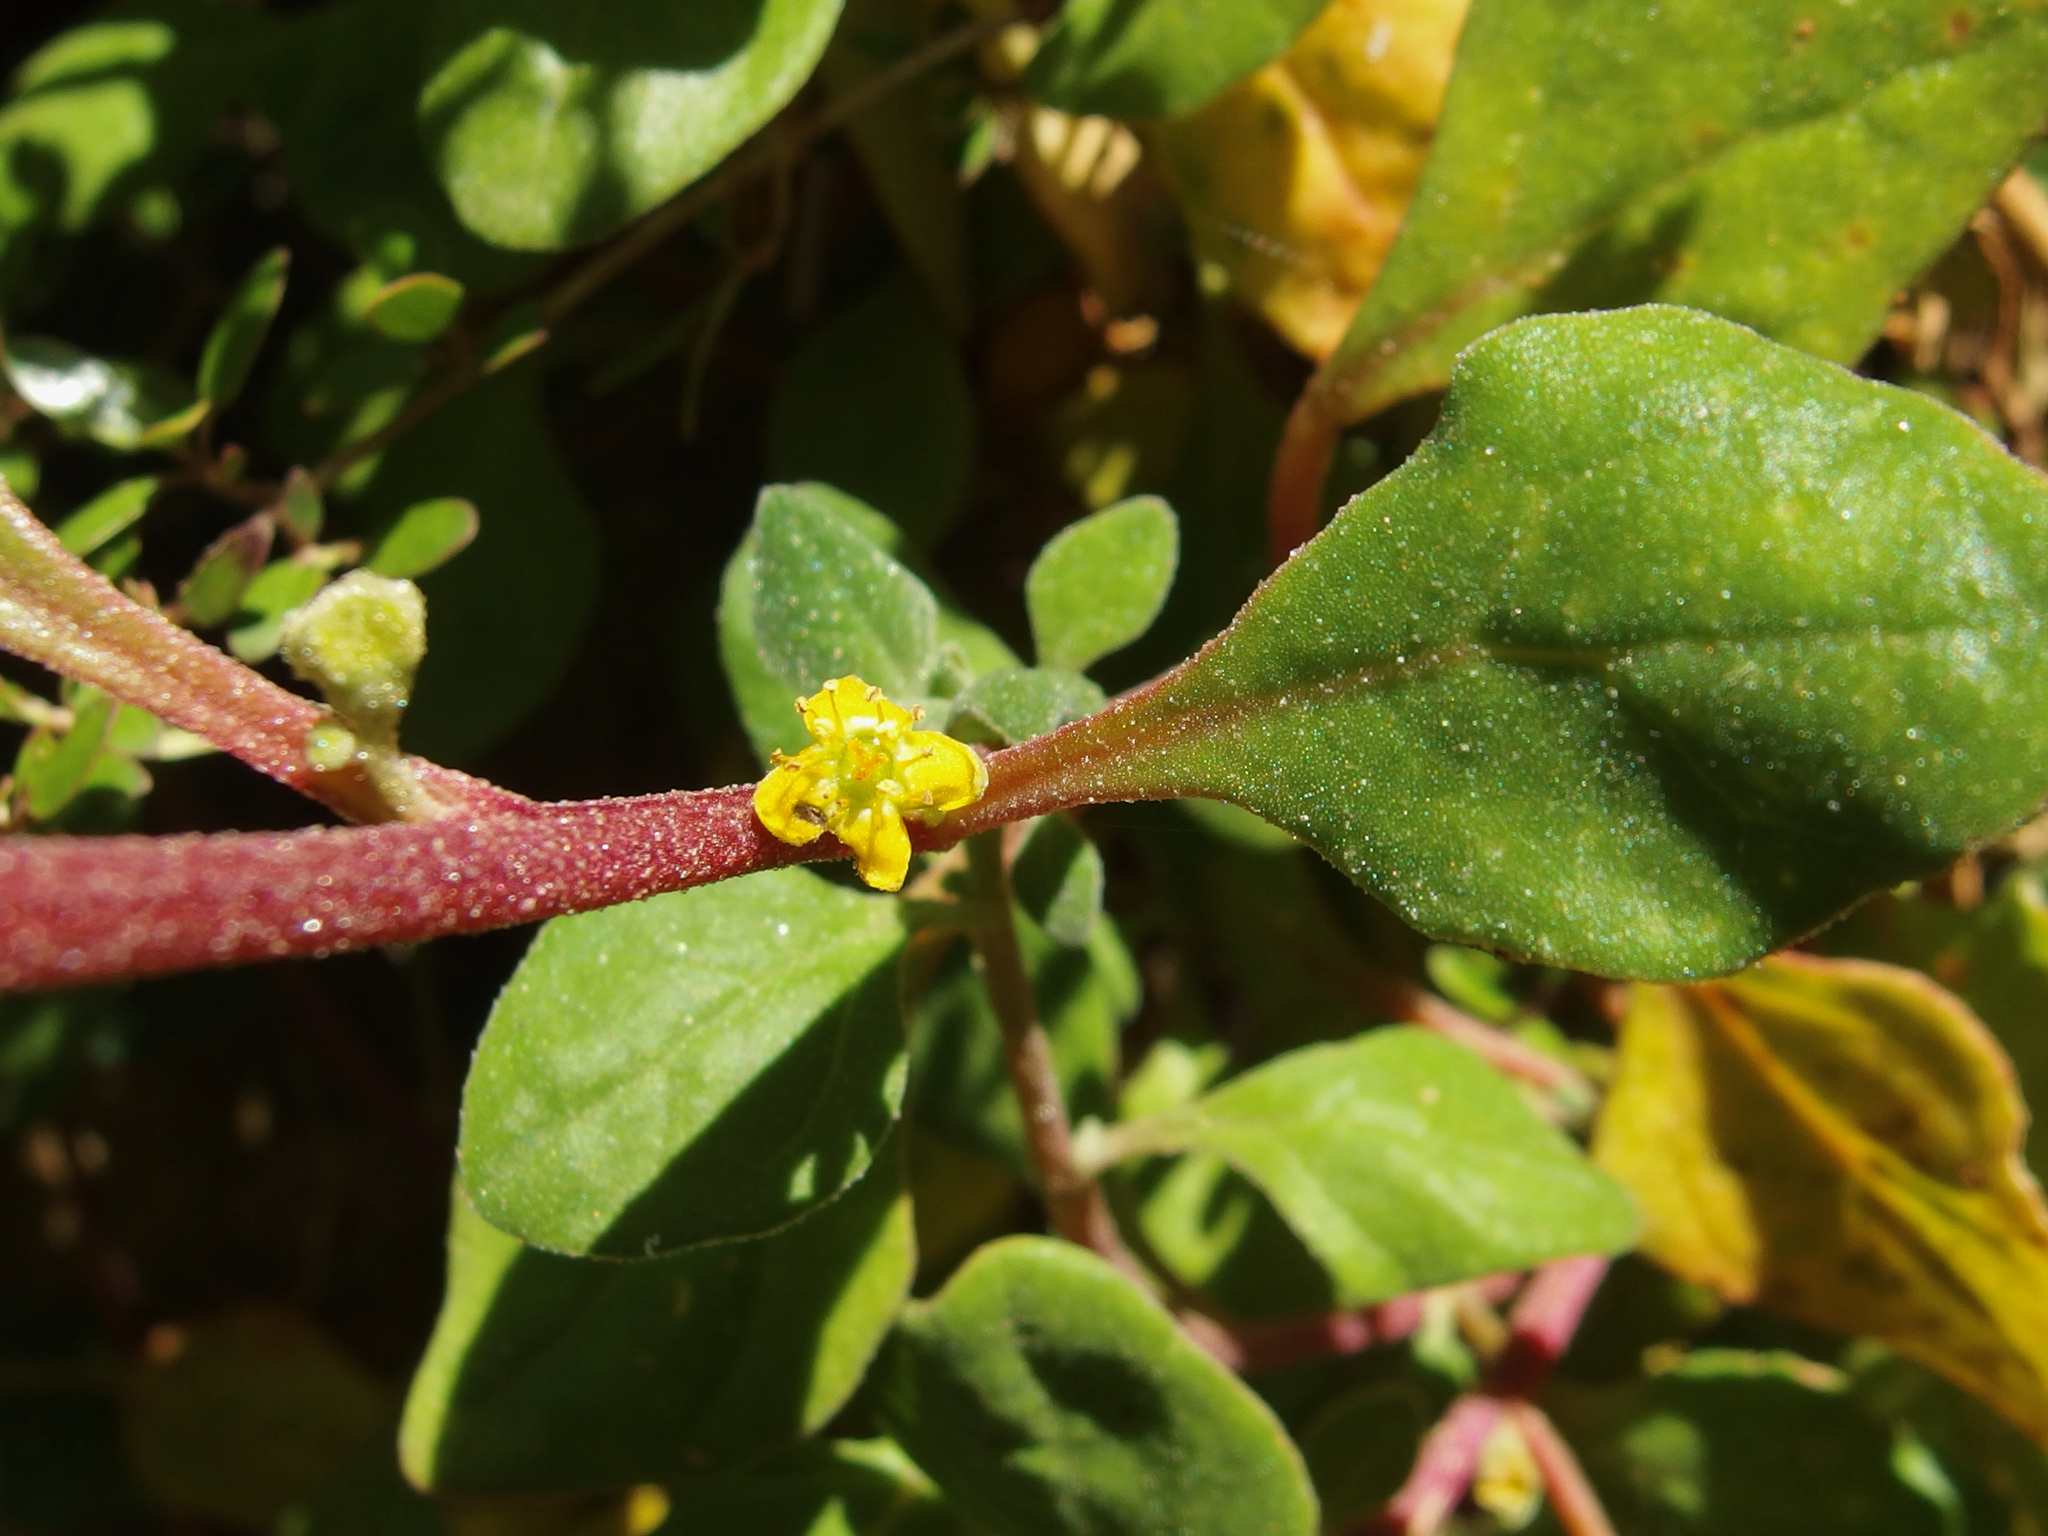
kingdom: Plantae
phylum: Tracheophyta
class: Magnoliopsida
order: Caryophyllales
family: Aizoaceae
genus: Tetragonia
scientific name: Tetragonia implexicoma
